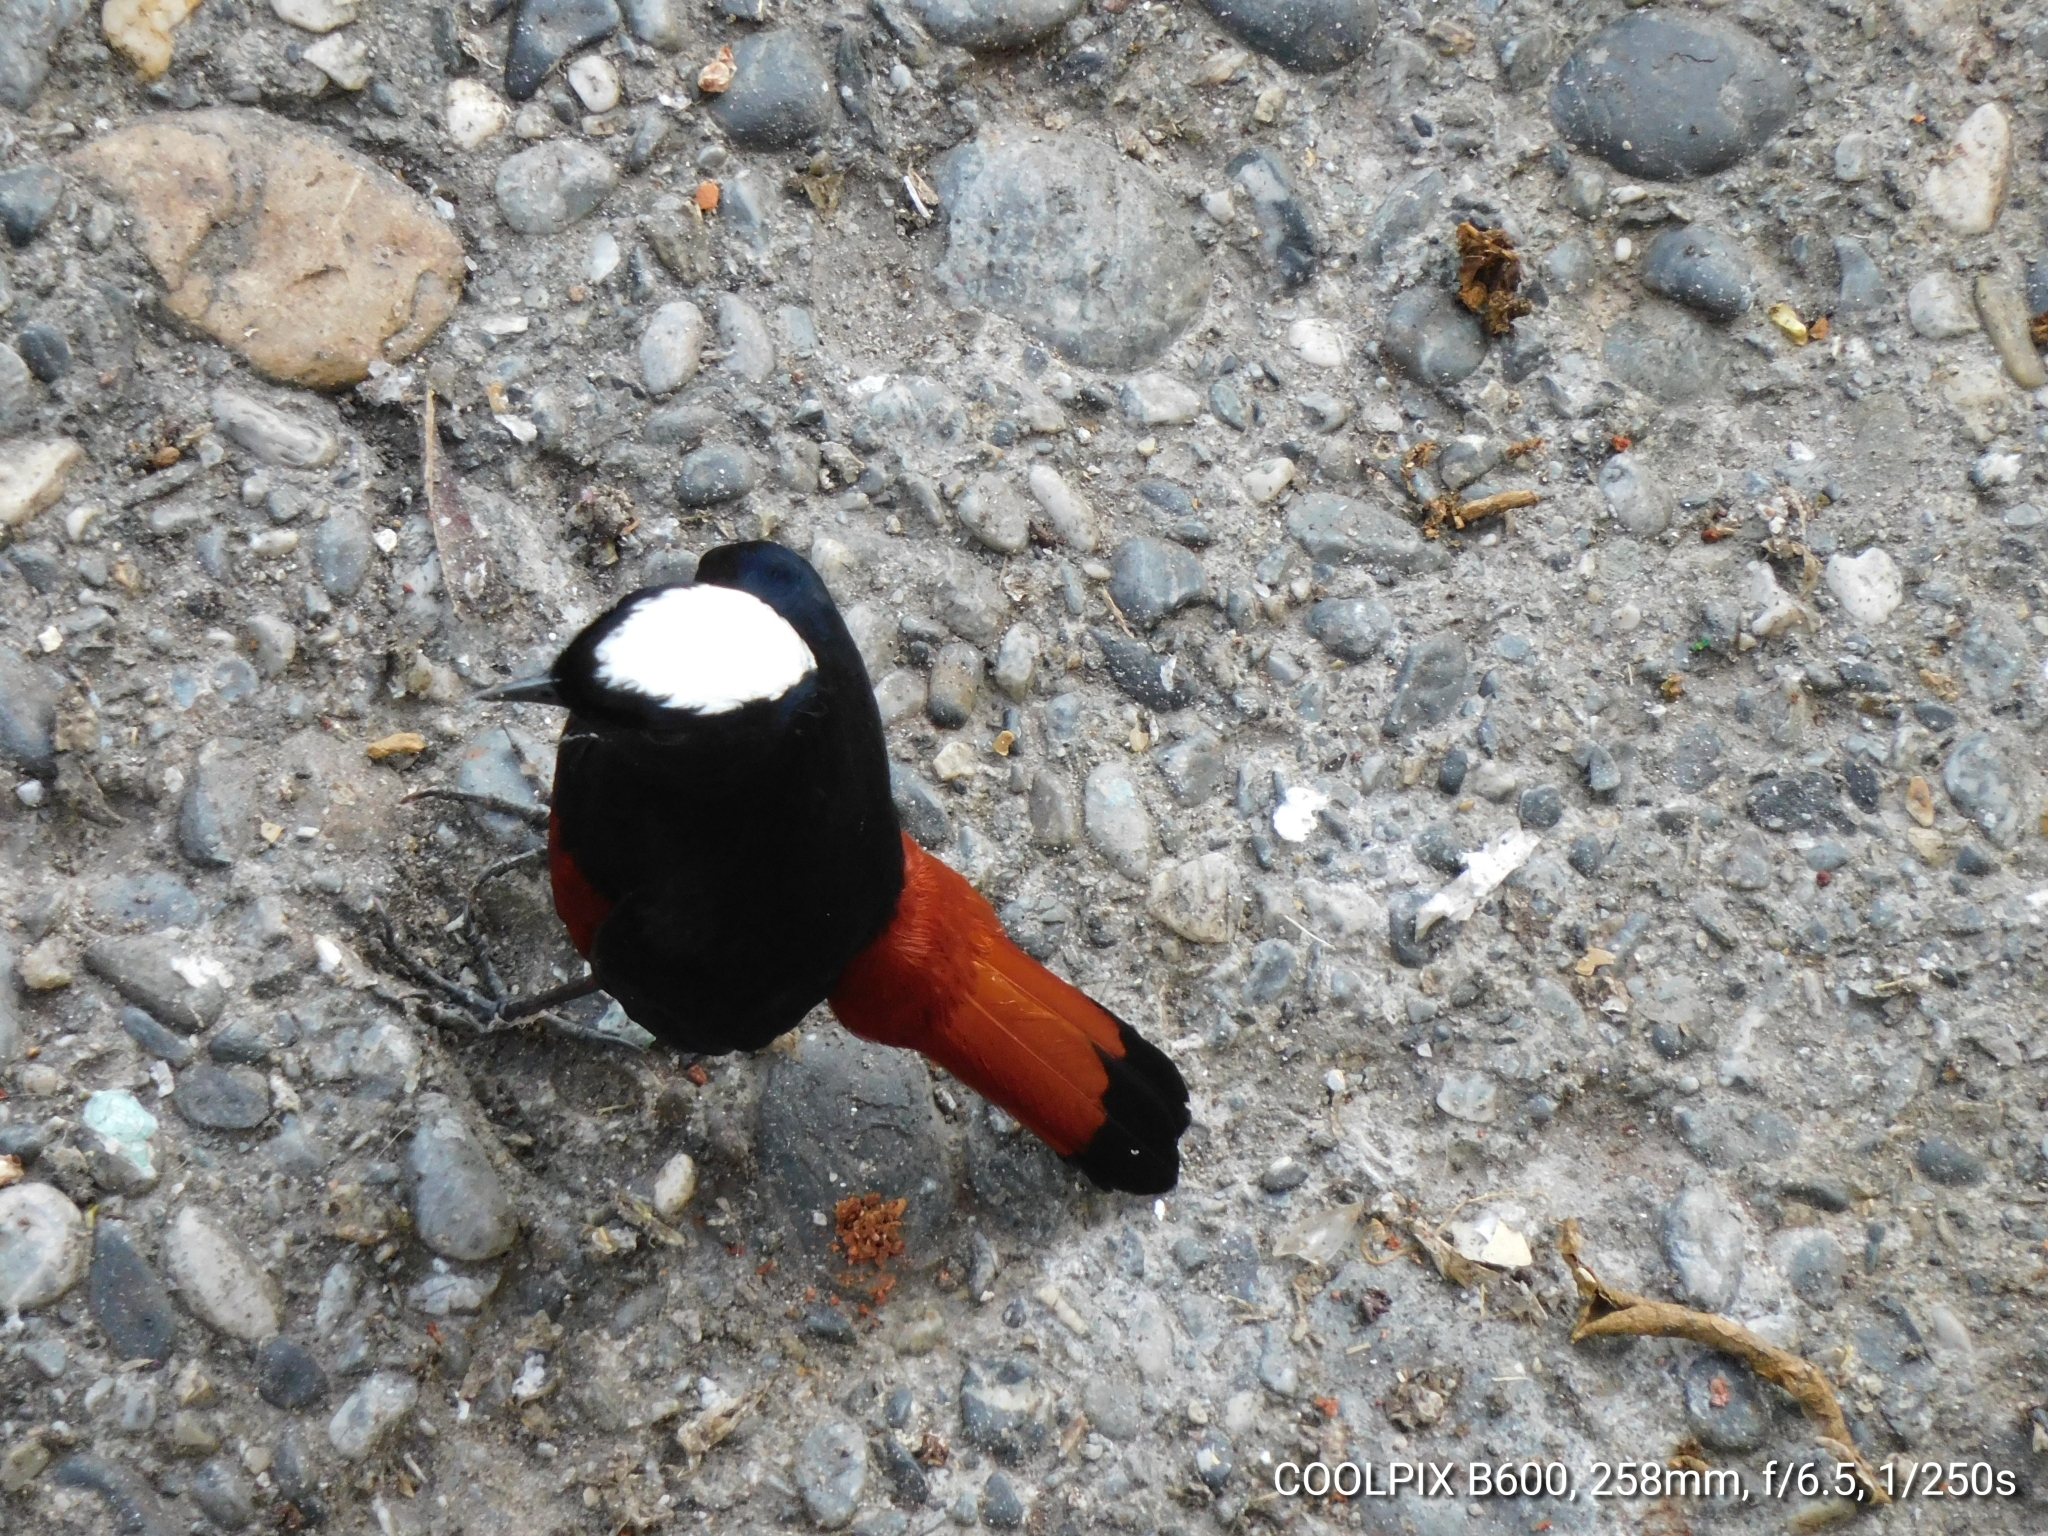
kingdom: Animalia
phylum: Chordata
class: Aves
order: Passeriformes
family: Muscicapidae
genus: Chaimarrornis
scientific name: Chaimarrornis leucocephalus
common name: White-capped redstart
